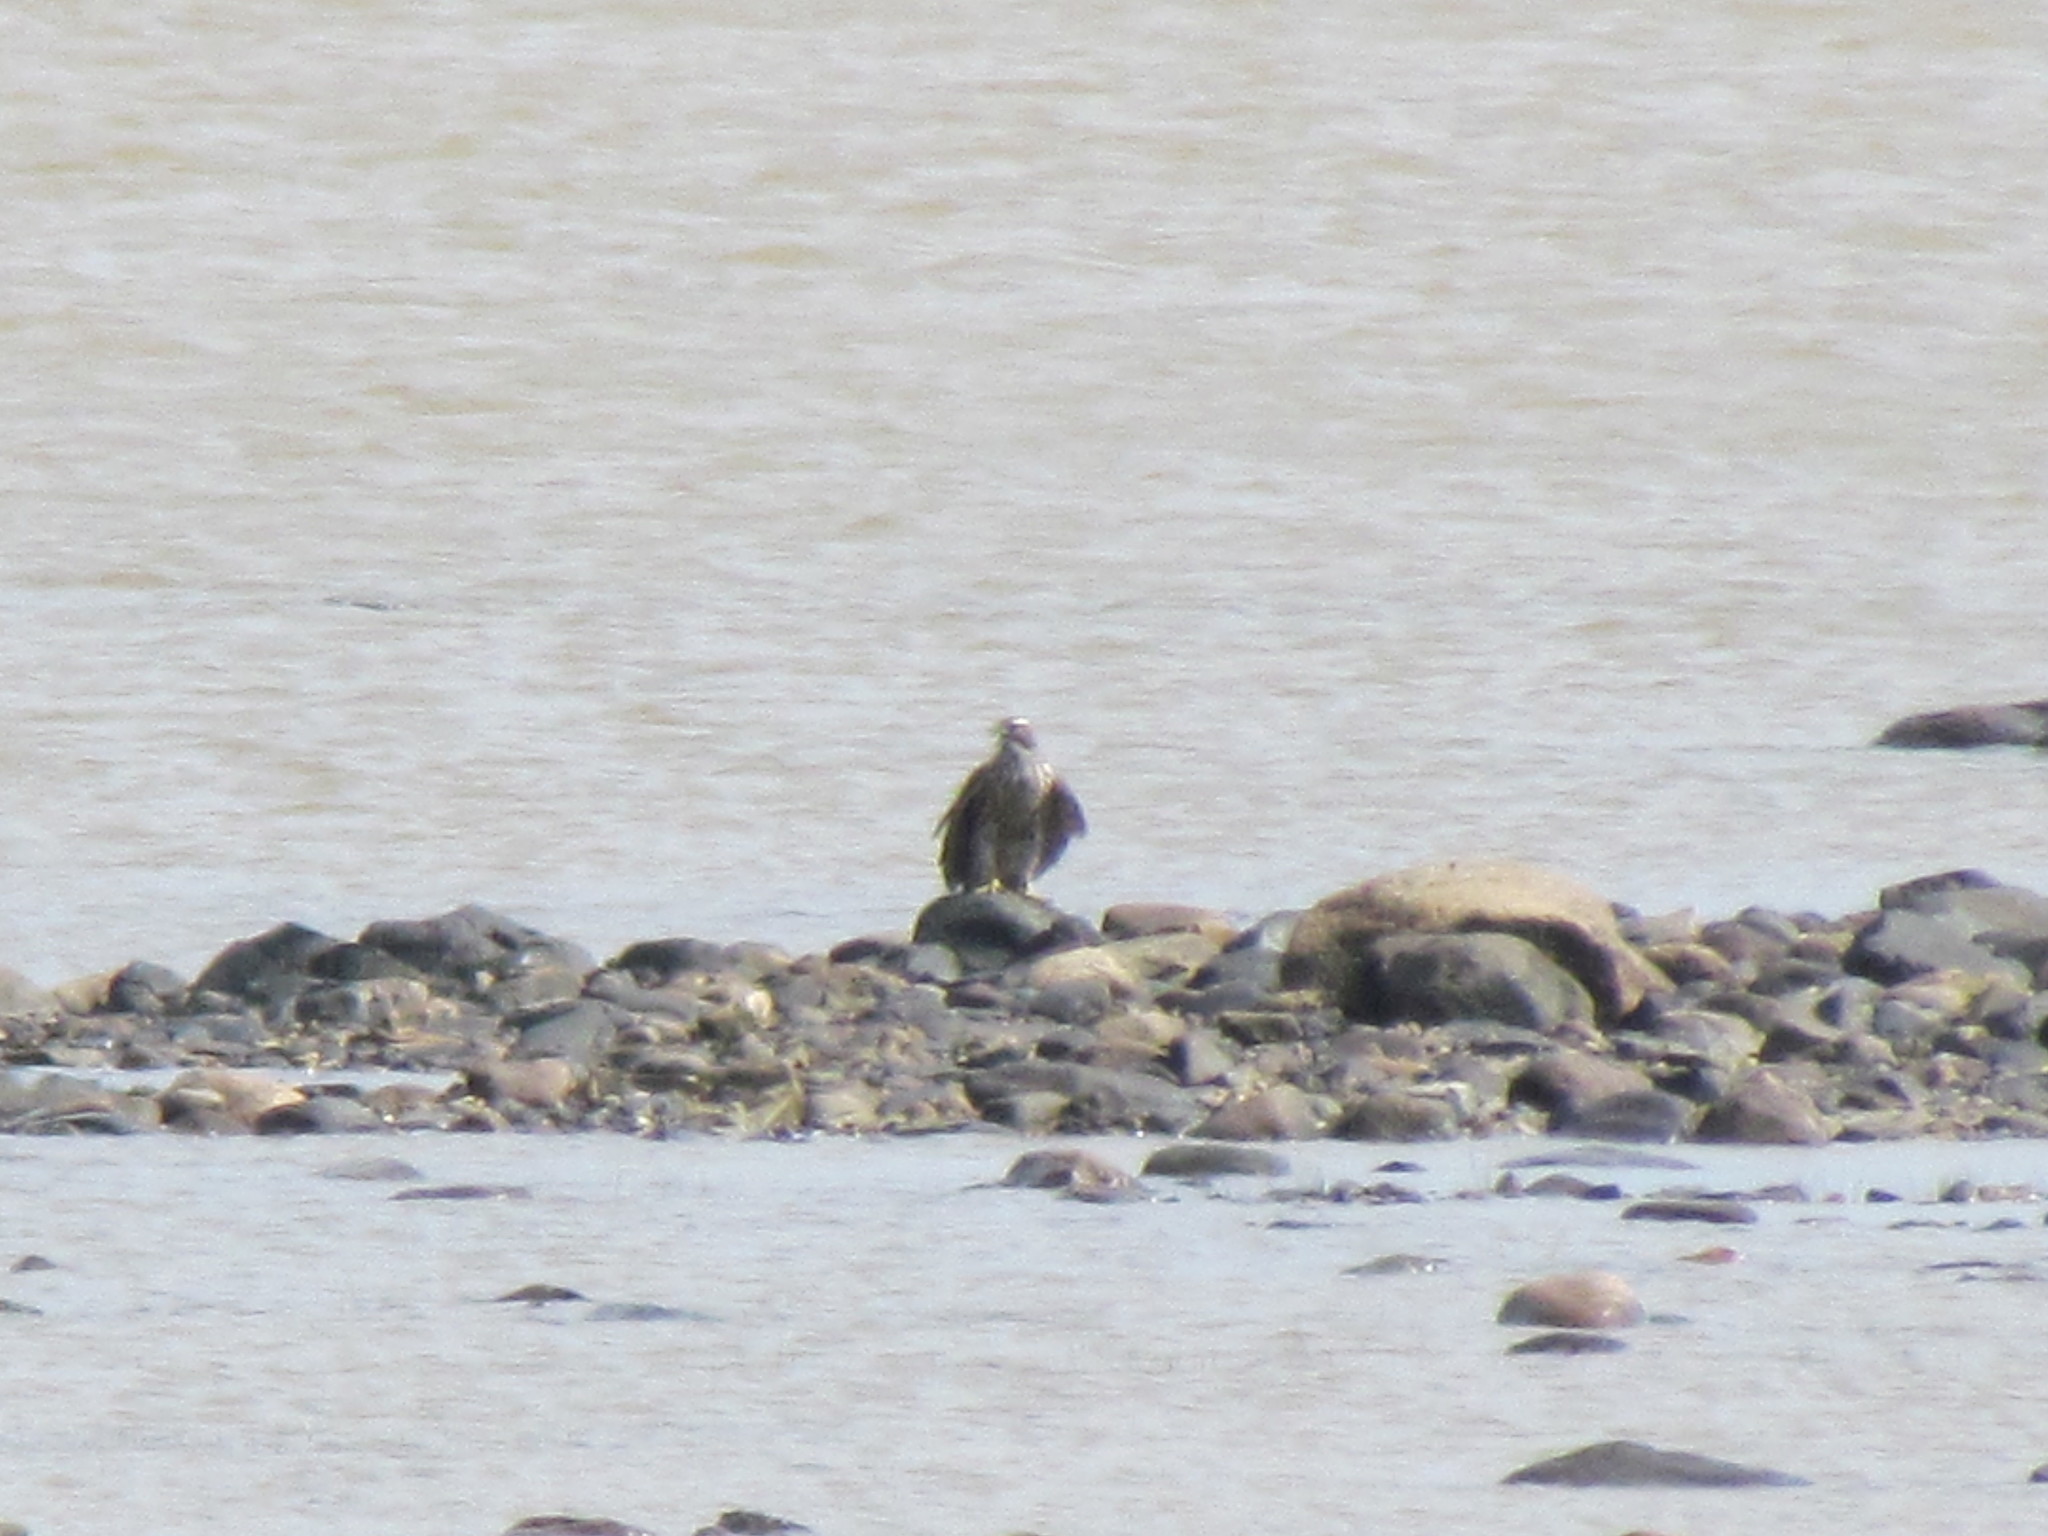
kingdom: Animalia
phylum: Chordata
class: Aves
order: Accipitriformes
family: Accipitridae
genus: Accipiter
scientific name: Accipiter gentilis
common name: Northern goshawk
